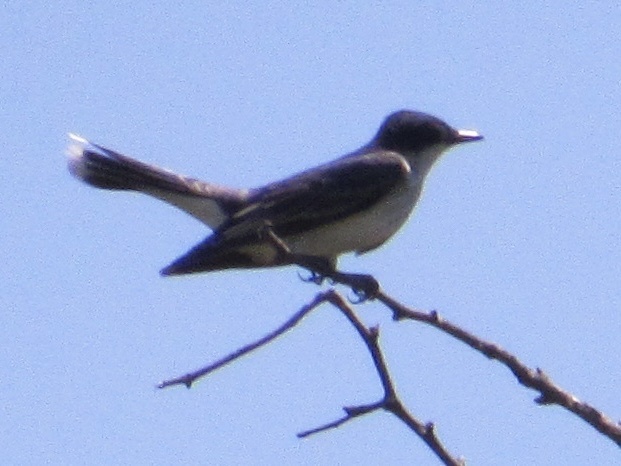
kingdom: Animalia
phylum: Chordata
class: Aves
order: Passeriformes
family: Tyrannidae
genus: Tyrannus
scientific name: Tyrannus tyrannus
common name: Eastern kingbird
